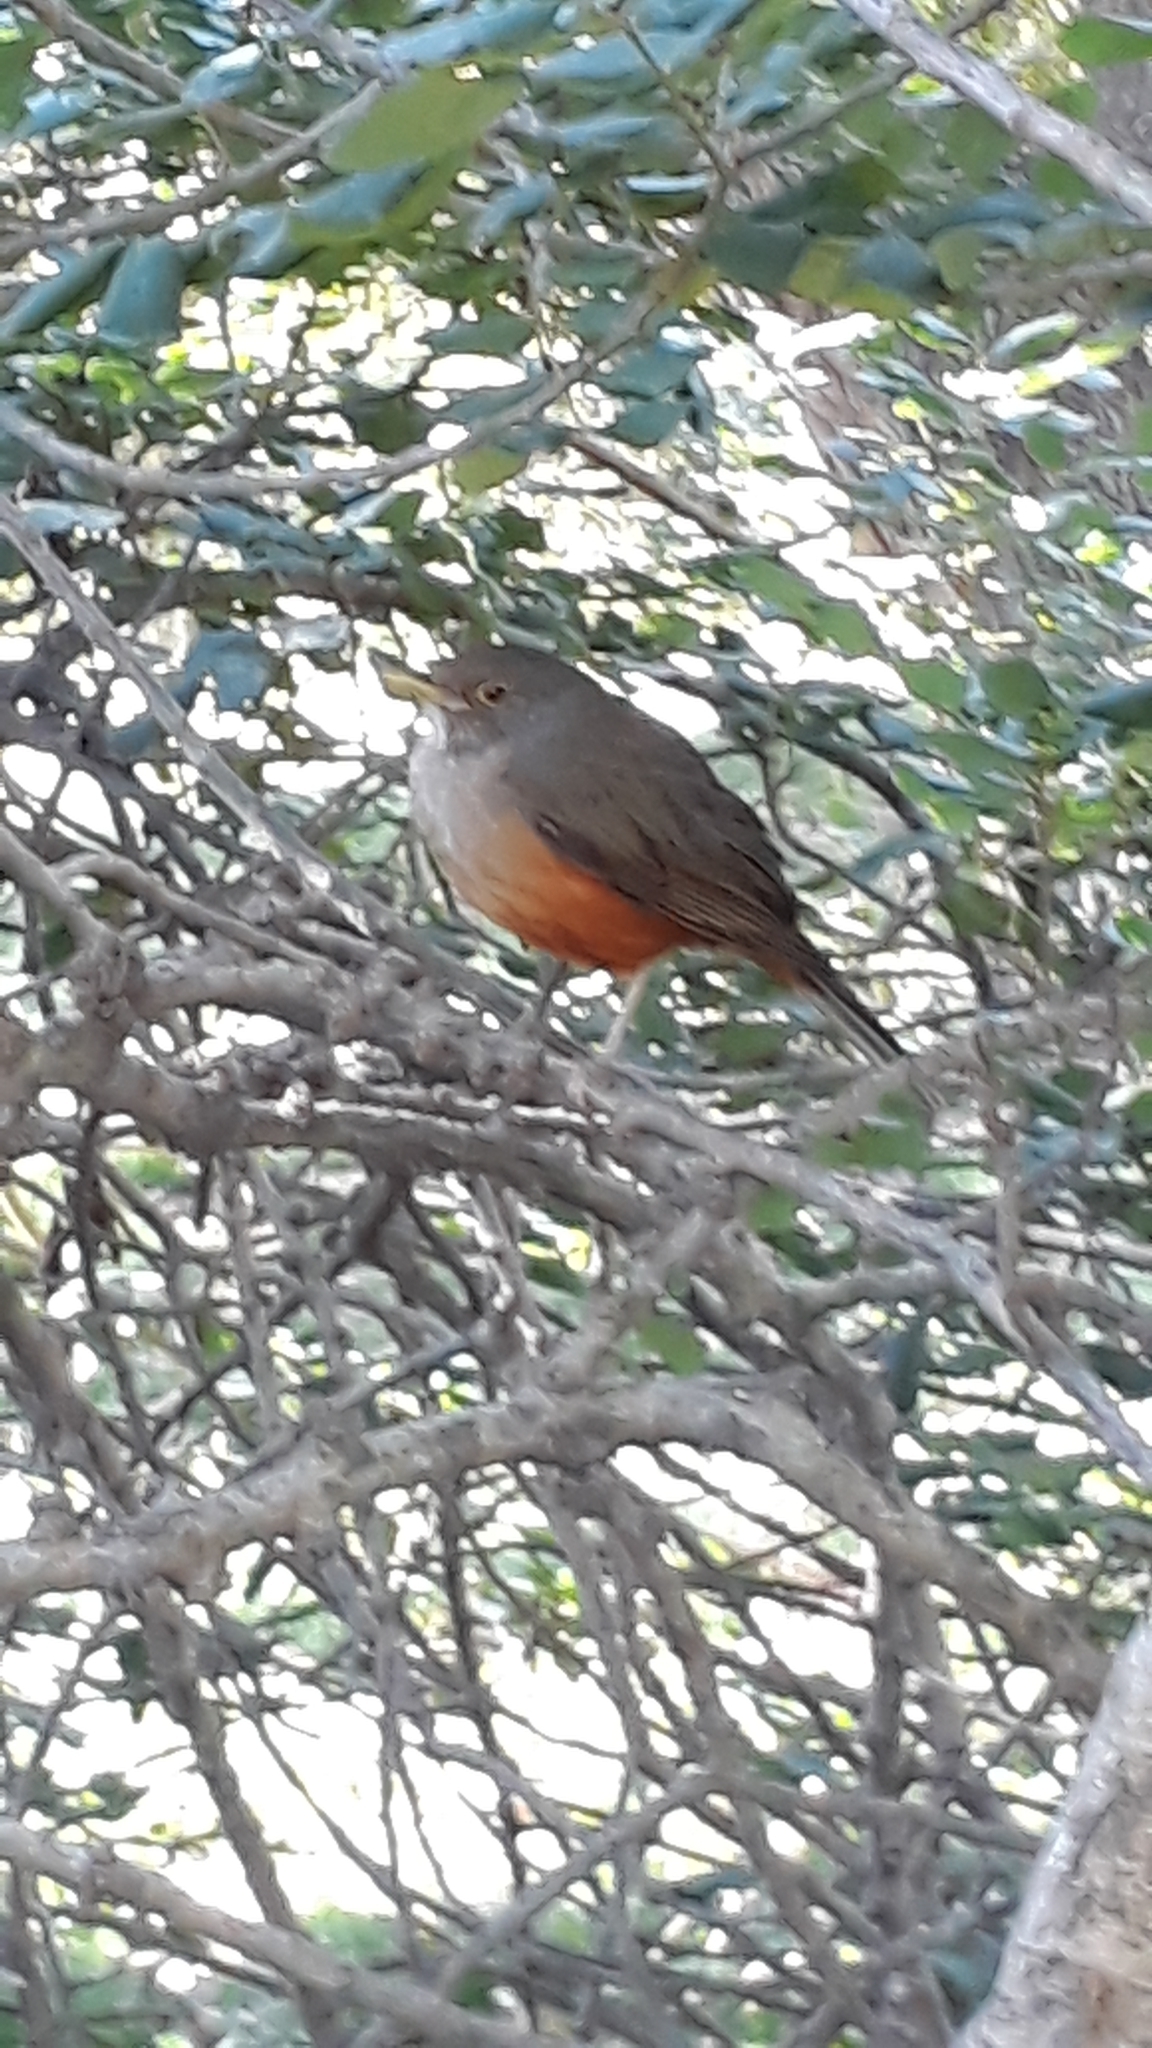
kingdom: Animalia
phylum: Chordata
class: Aves
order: Passeriformes
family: Turdidae
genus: Turdus
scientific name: Turdus rufiventris
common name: Rufous-bellied thrush
